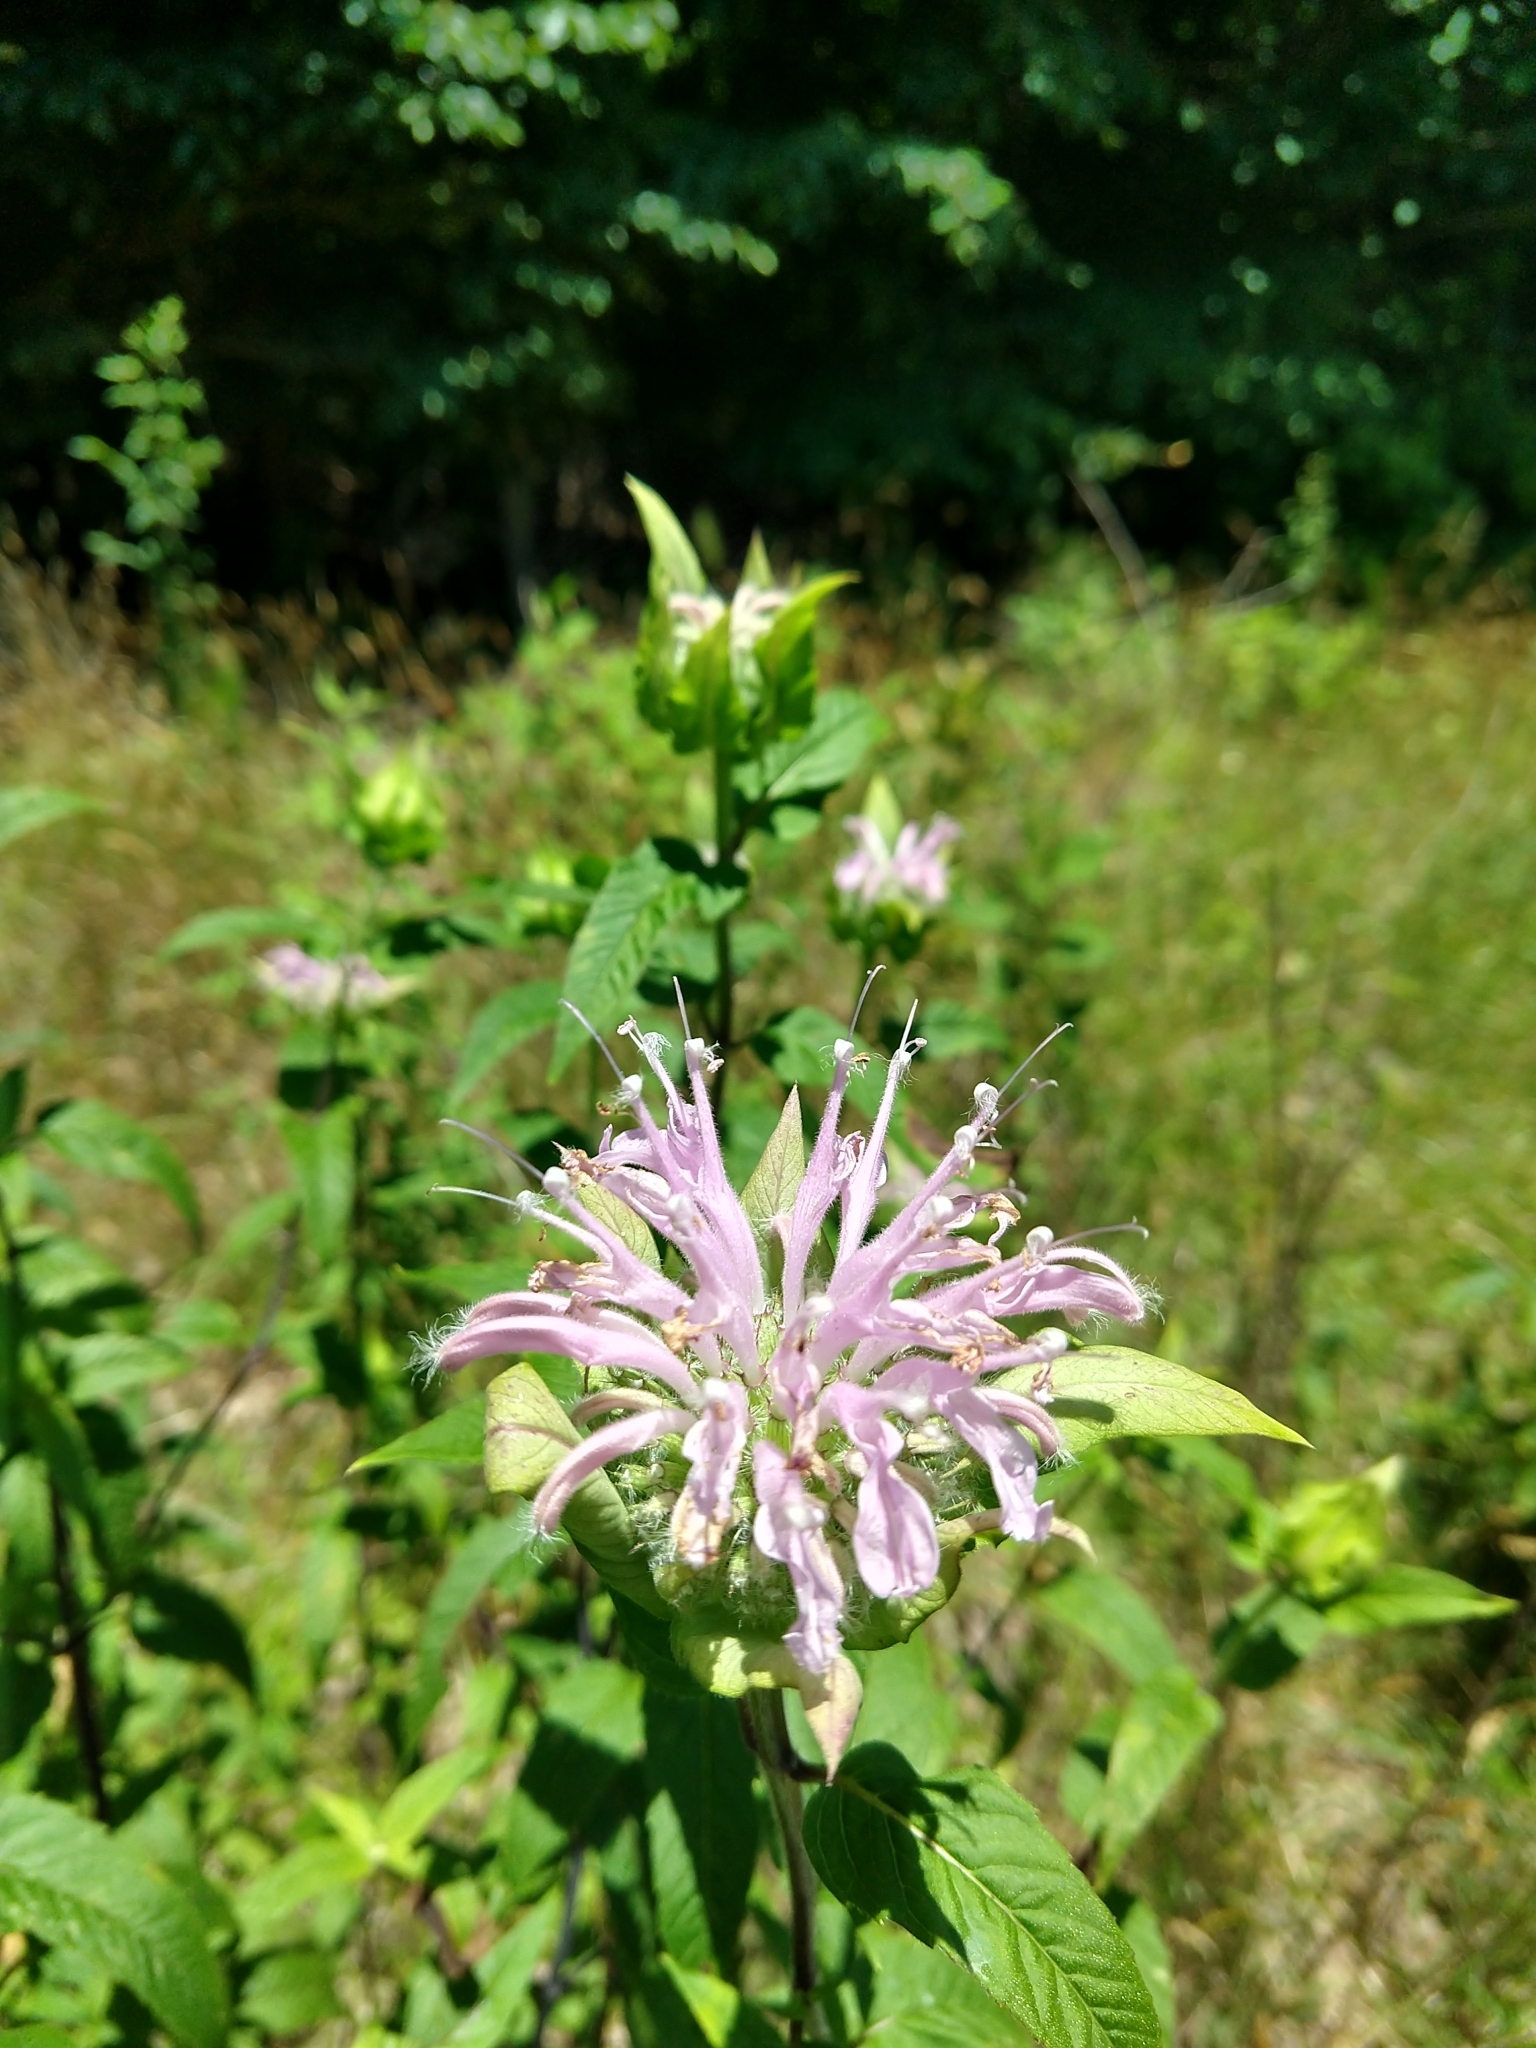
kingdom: Plantae
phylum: Tracheophyta
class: Magnoliopsida
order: Lamiales
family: Lamiaceae
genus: Monarda
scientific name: Monarda fistulosa
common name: Purple beebalm
